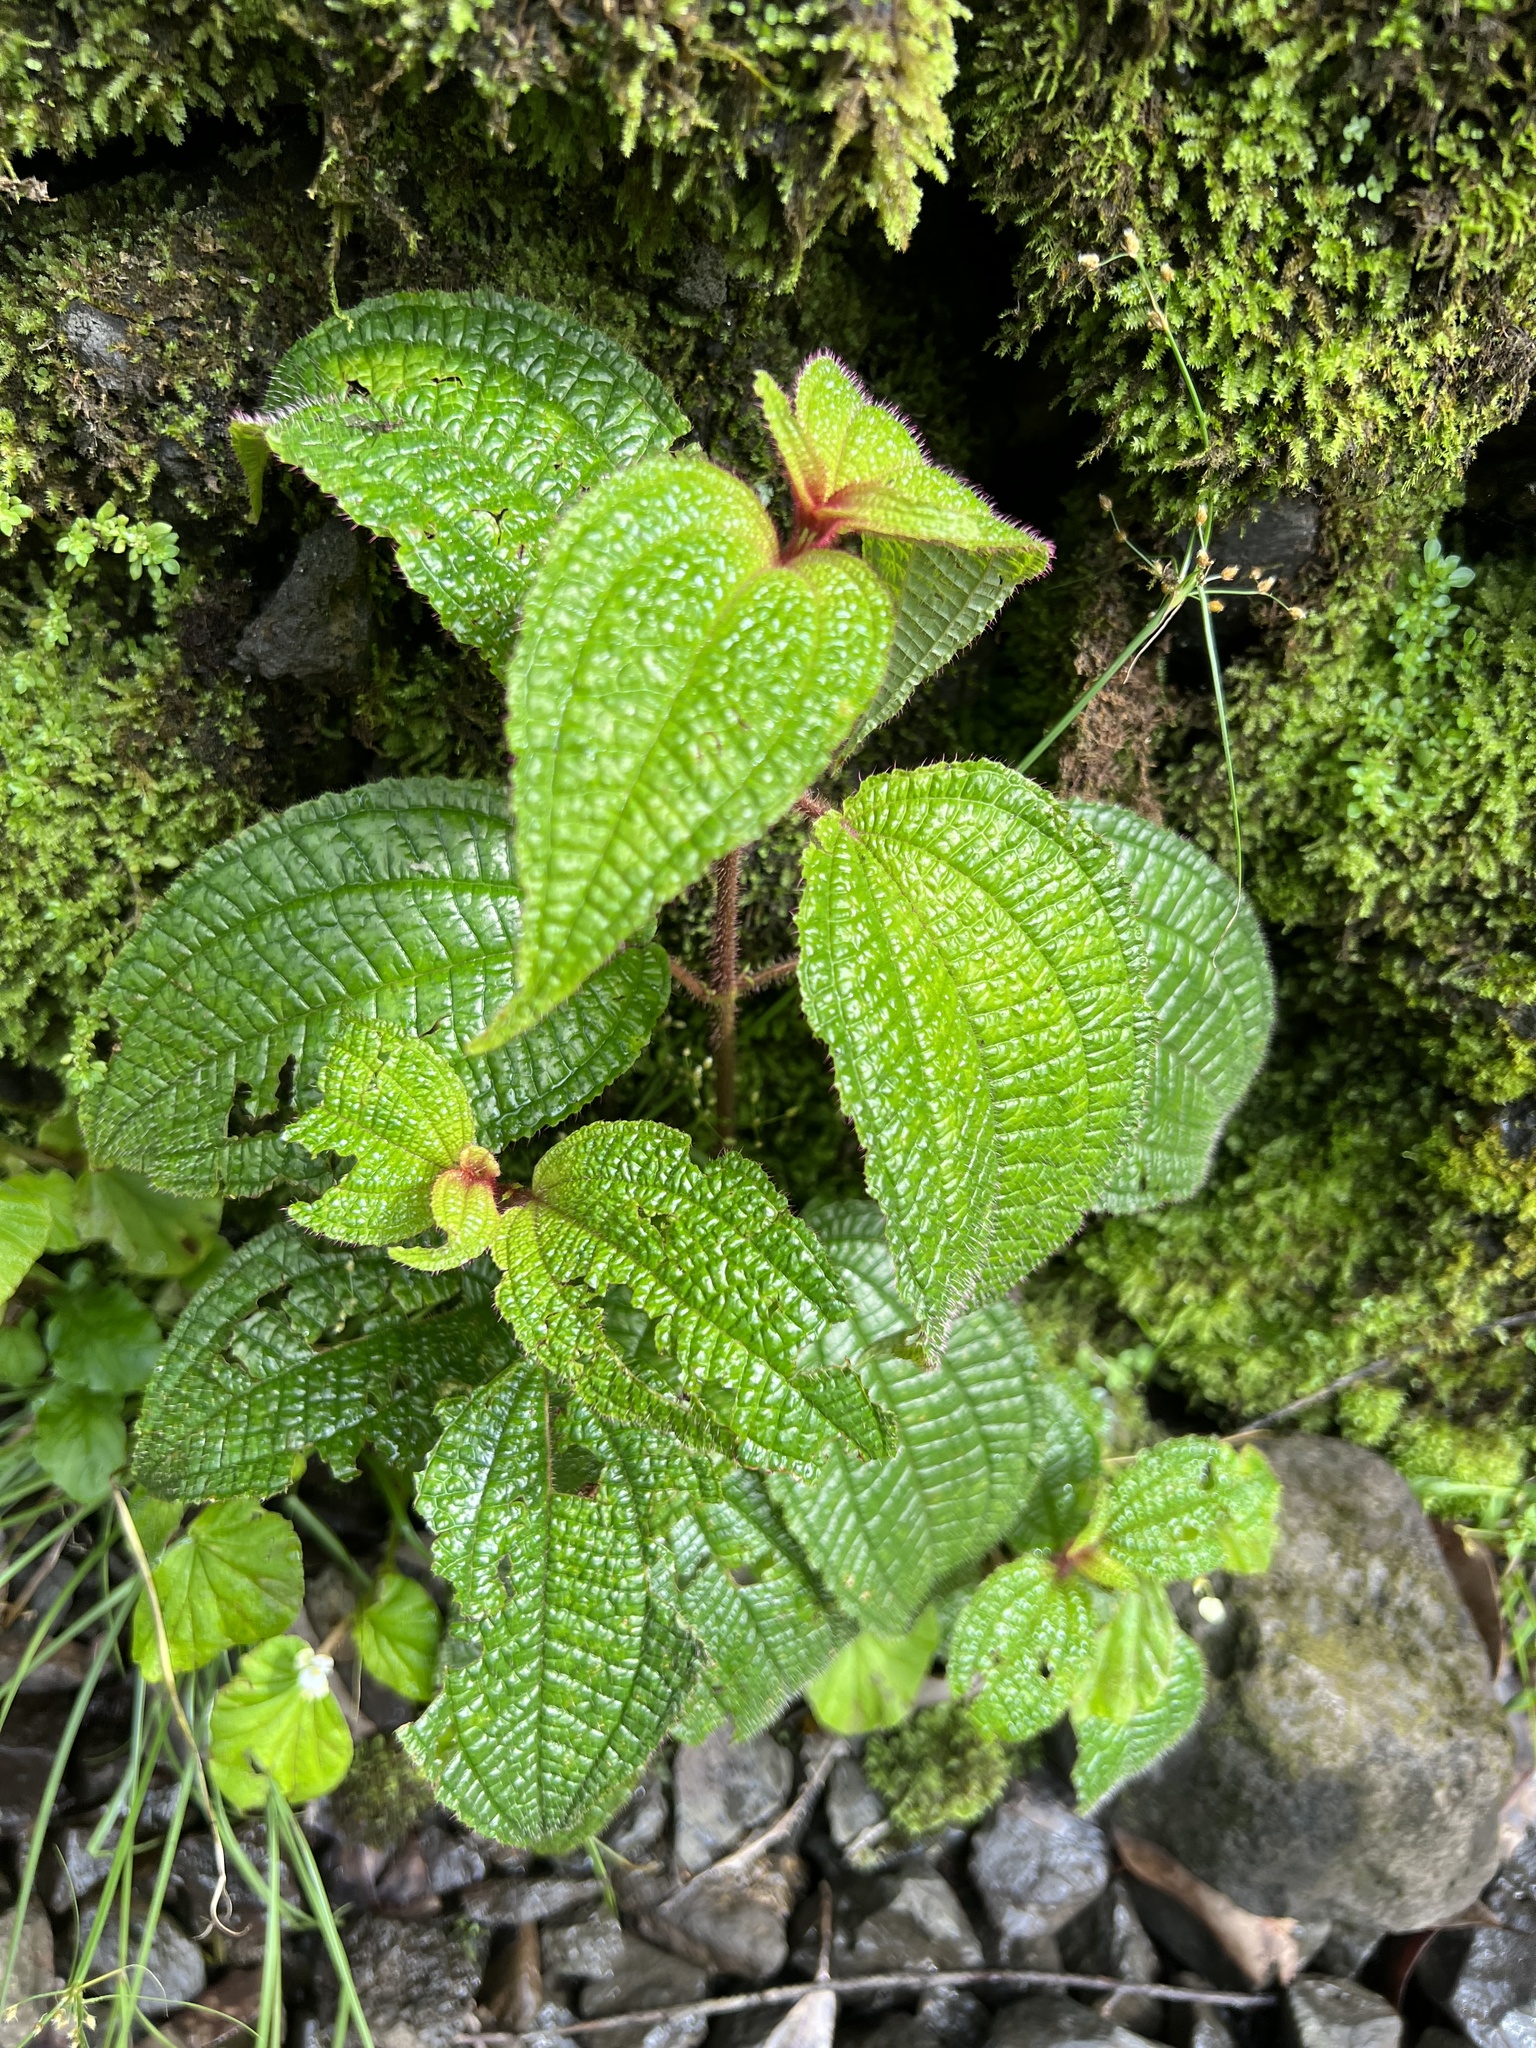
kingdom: Plantae
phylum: Tracheophyta
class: Magnoliopsida
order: Myrtales
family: Melastomataceae
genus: Miconia
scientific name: Miconia crenata
